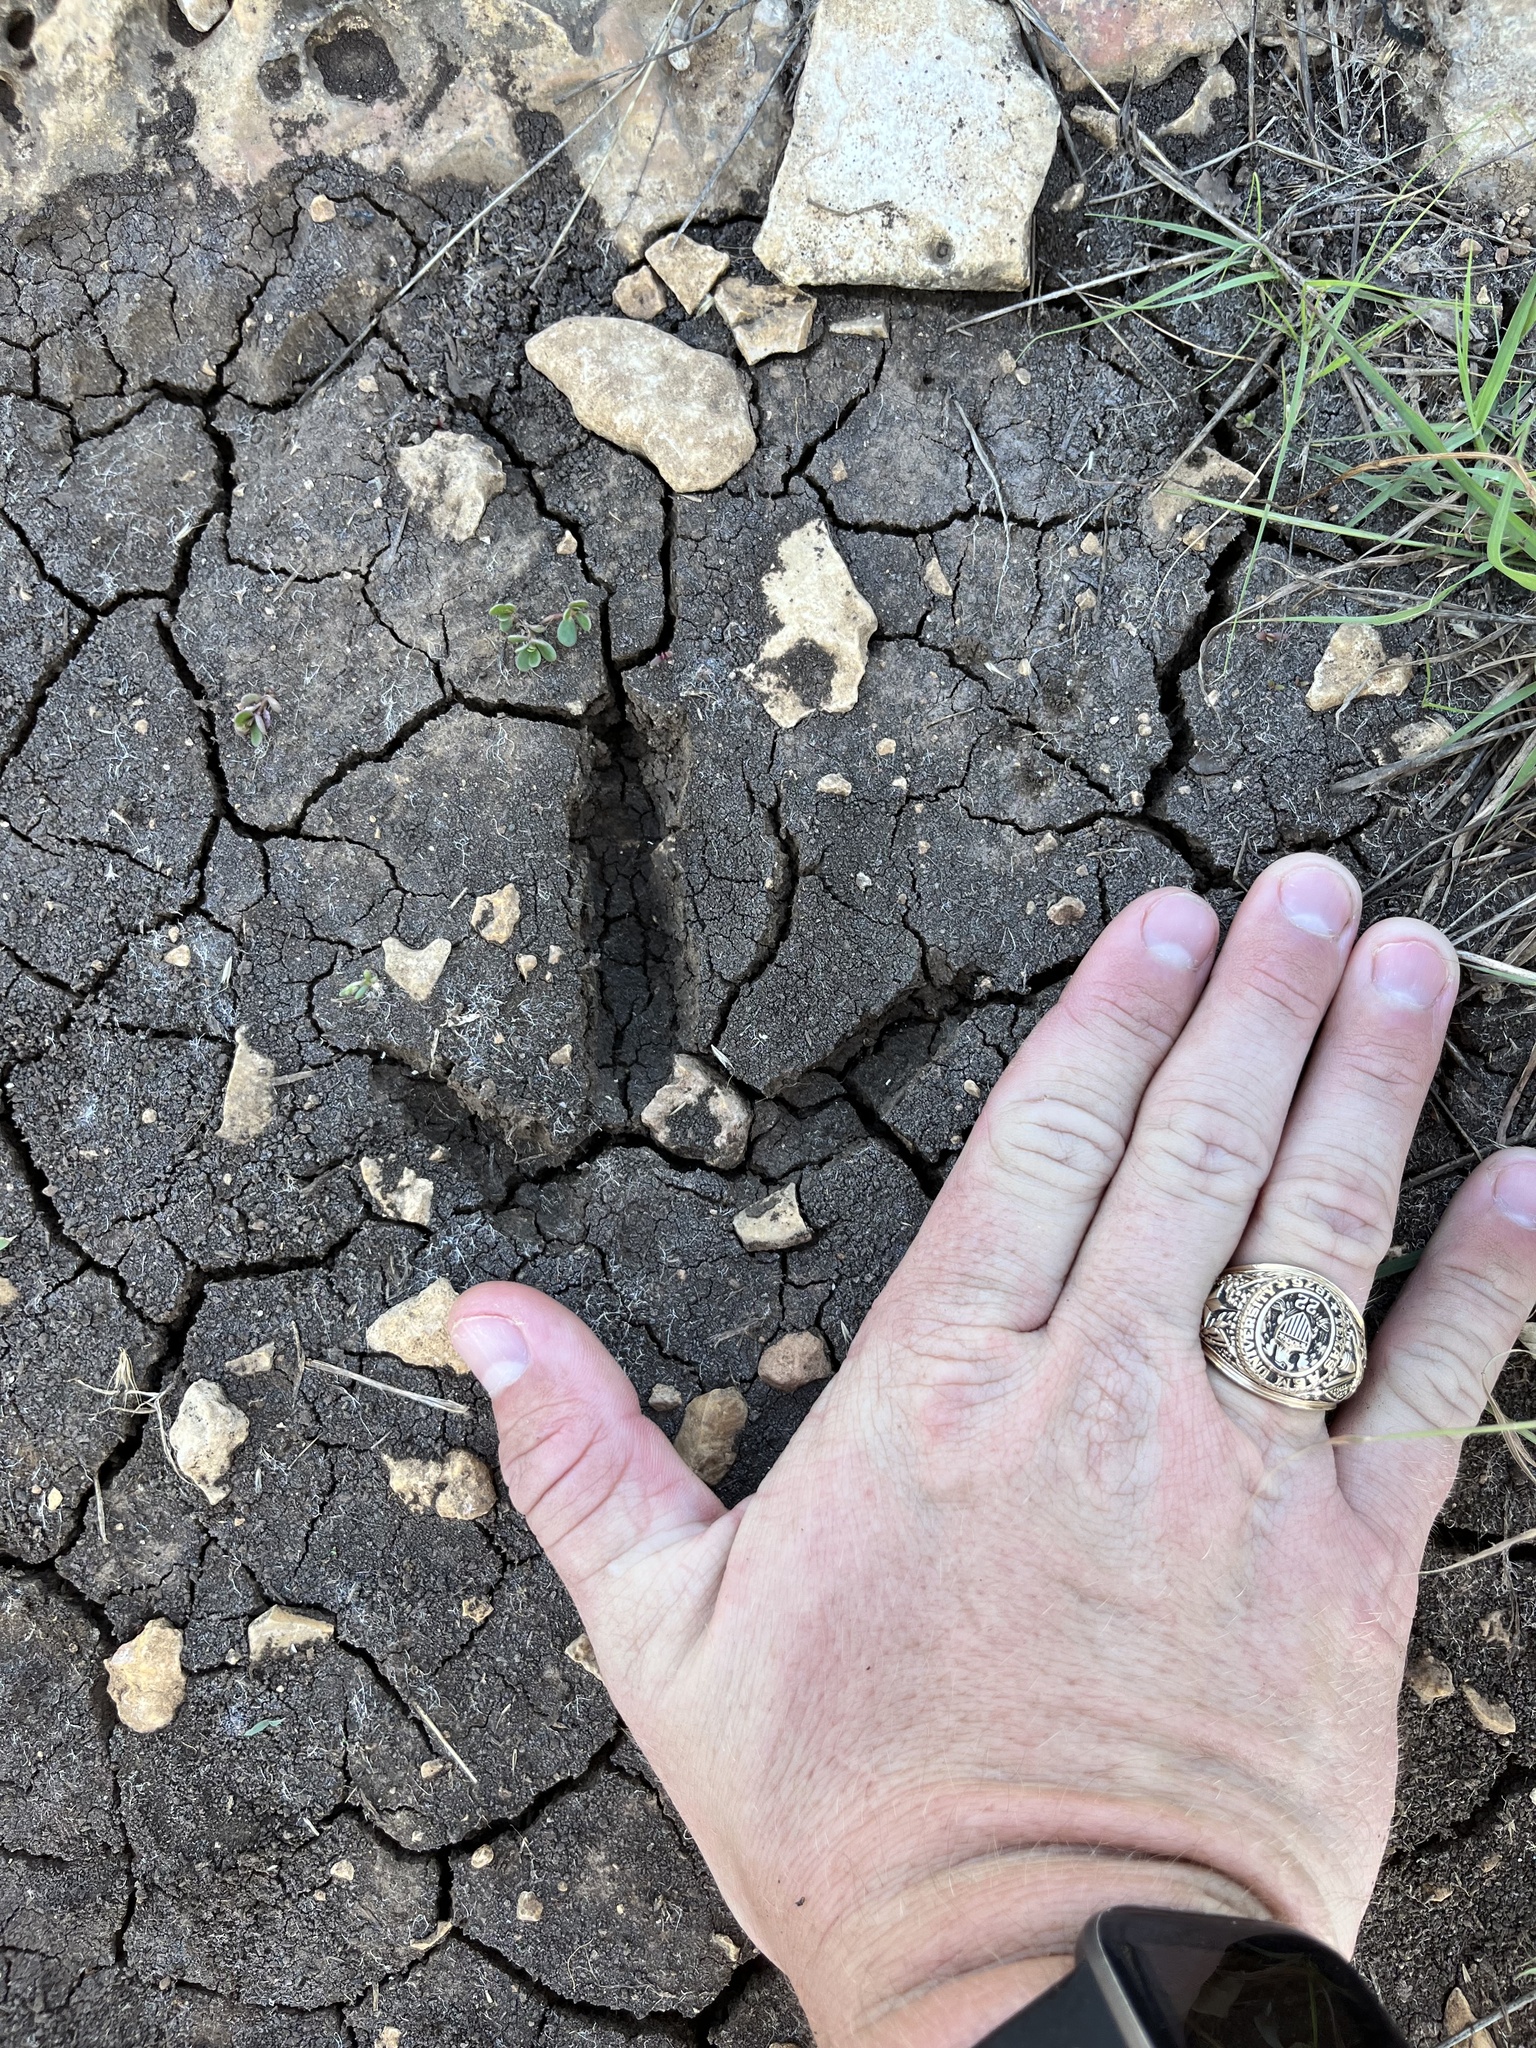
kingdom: Animalia
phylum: Chordata
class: Aves
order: Galliformes
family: Phasianidae
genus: Meleagris
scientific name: Meleagris gallopavo
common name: Wild turkey
